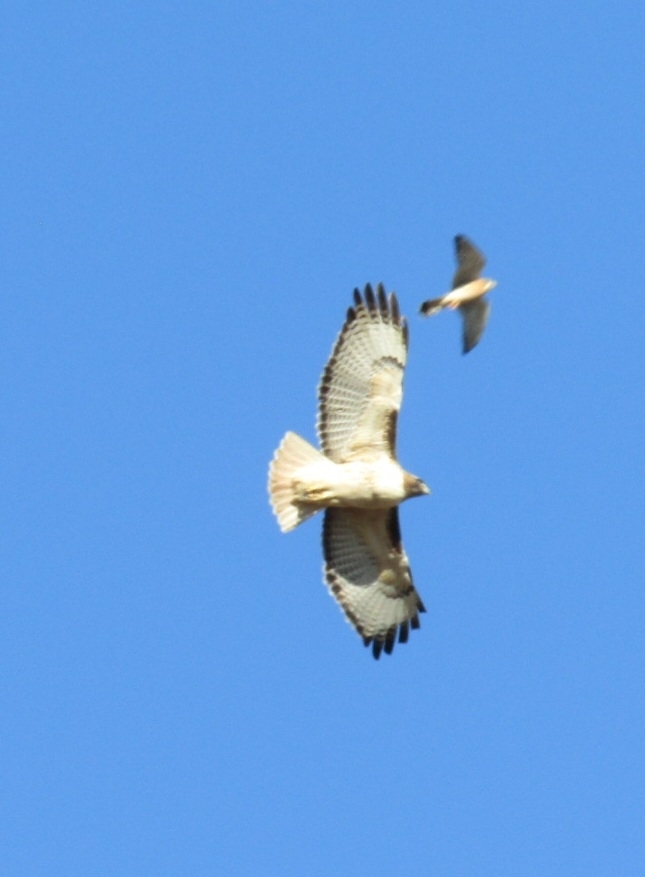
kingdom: Animalia
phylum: Chordata
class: Aves
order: Accipitriformes
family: Accipitridae
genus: Buteo
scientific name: Buteo jamaicensis
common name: Red-tailed hawk
